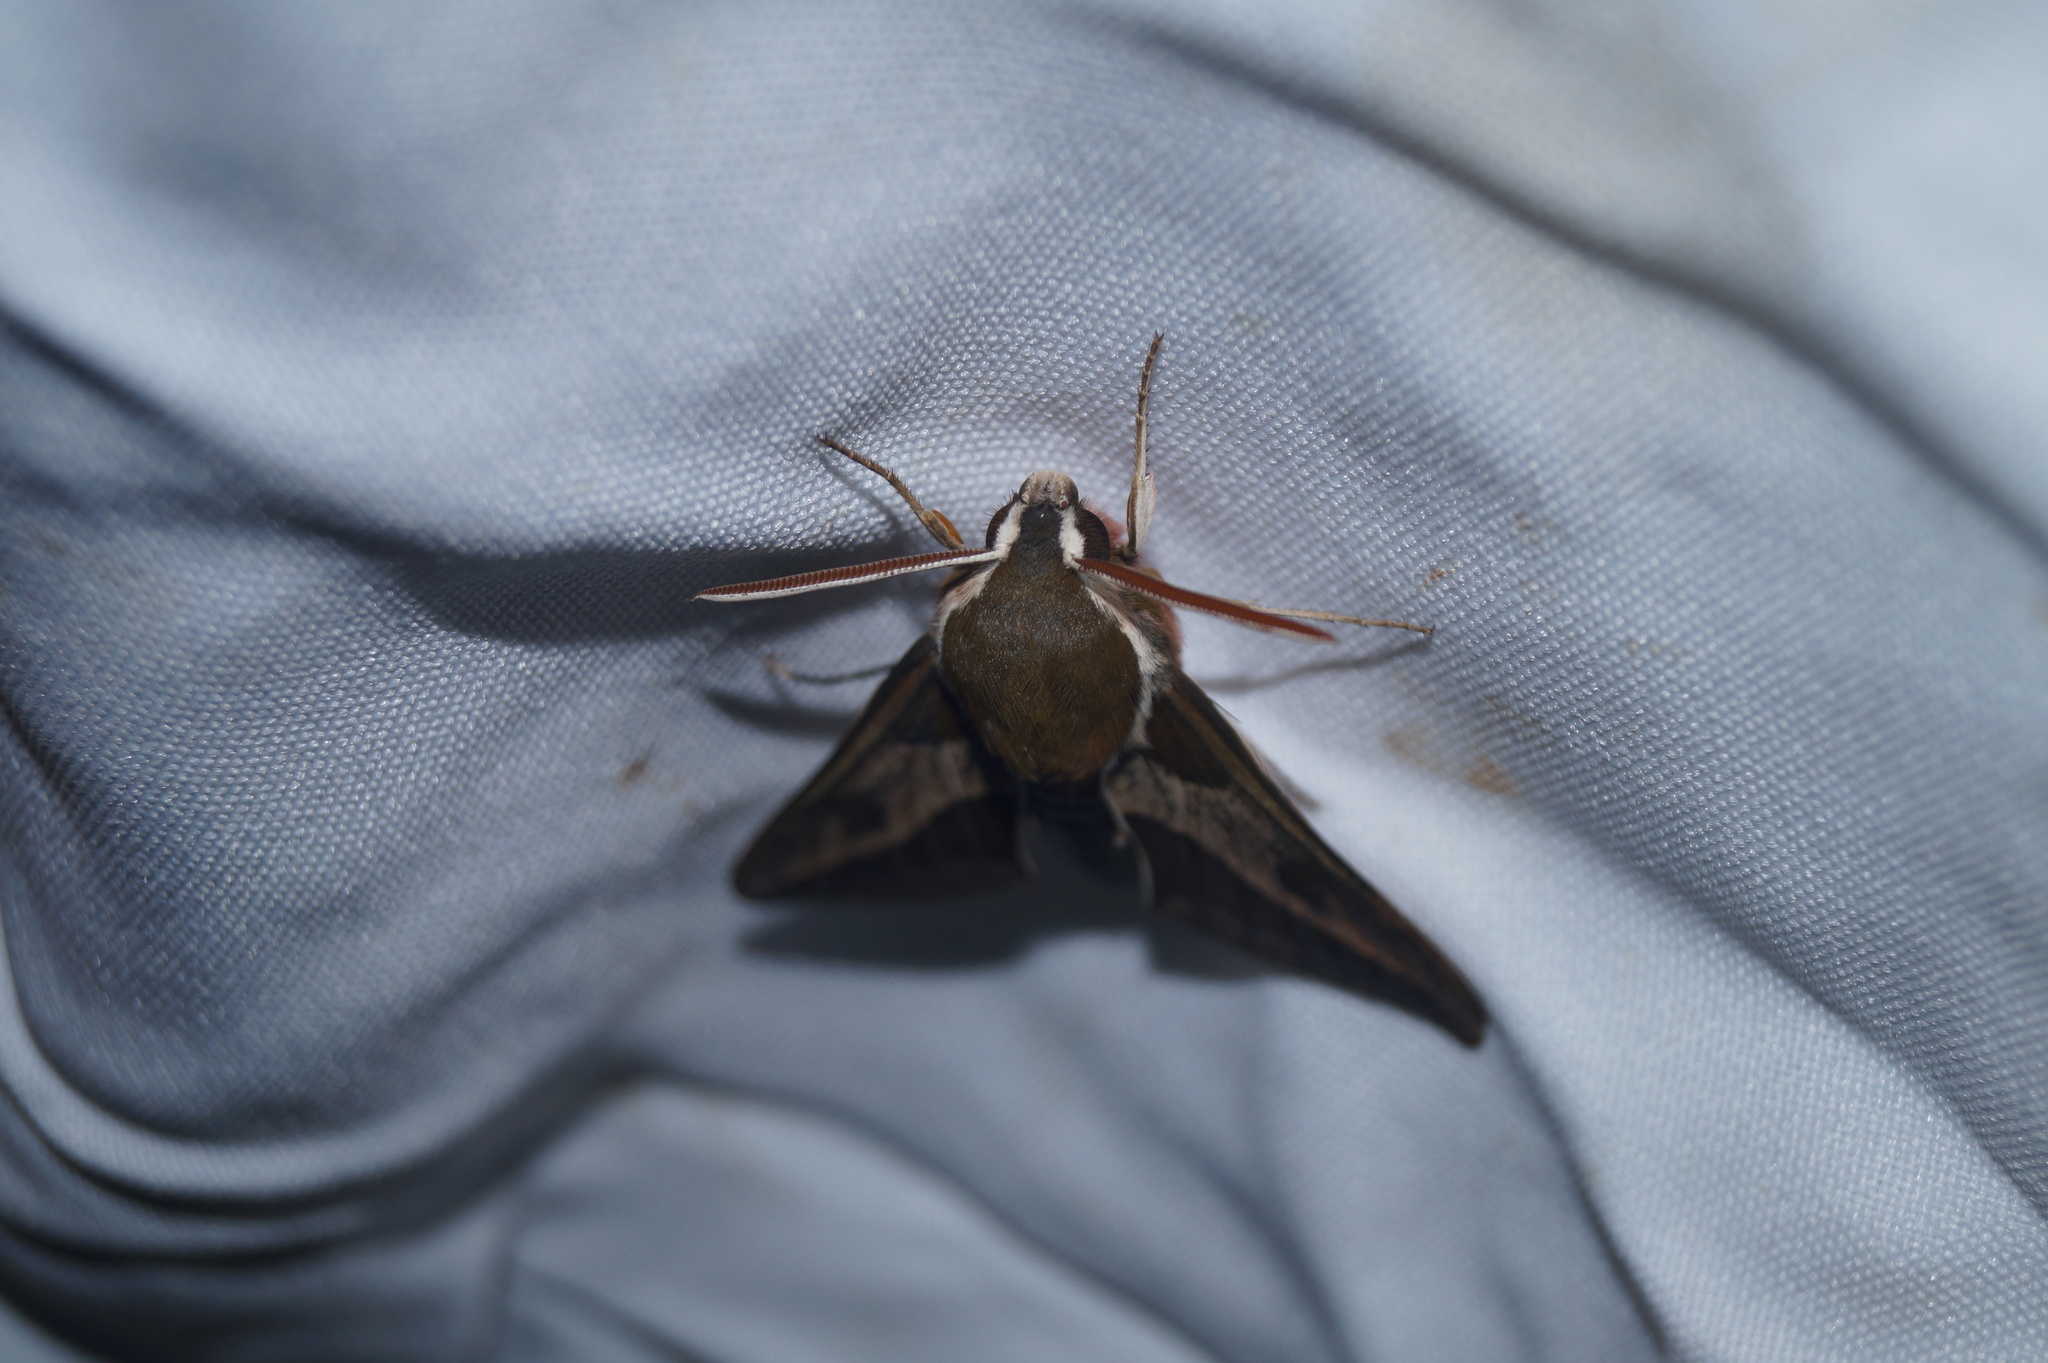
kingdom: Animalia
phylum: Arthropoda
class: Insecta
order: Lepidoptera
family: Sphingidae
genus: Hyles
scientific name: Hyles euphorbiae
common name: Spurge hawk-moth
